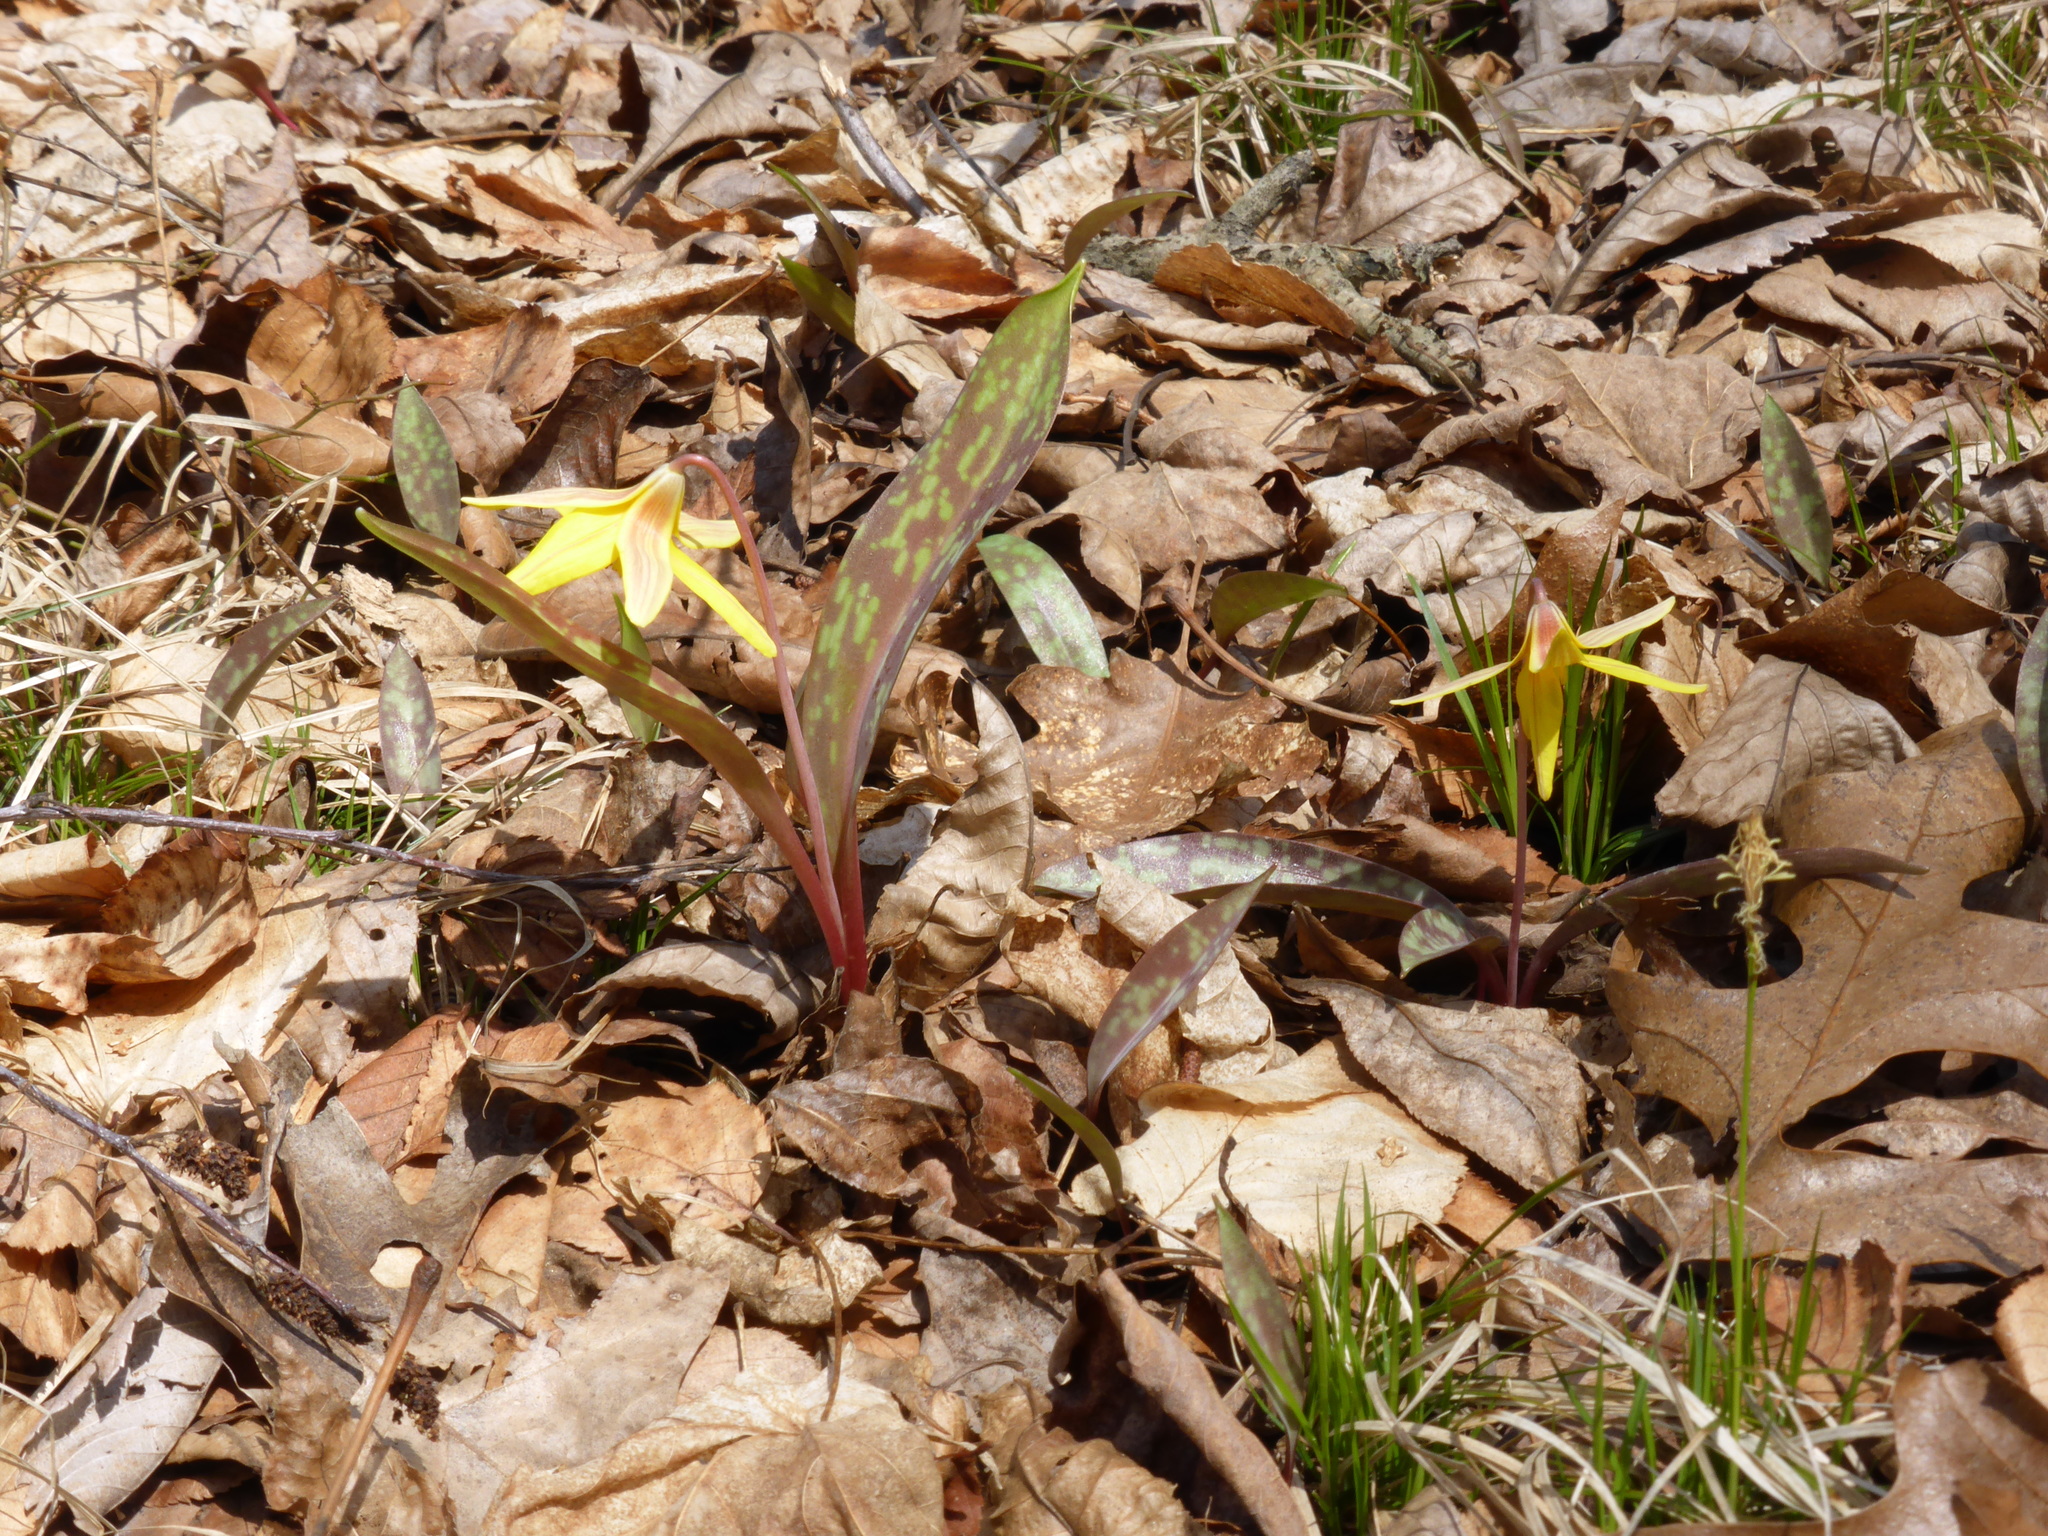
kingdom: Plantae
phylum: Tracheophyta
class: Liliopsida
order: Liliales
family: Liliaceae
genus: Erythronium
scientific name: Erythronium americanum
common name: Yellow adder's-tongue
